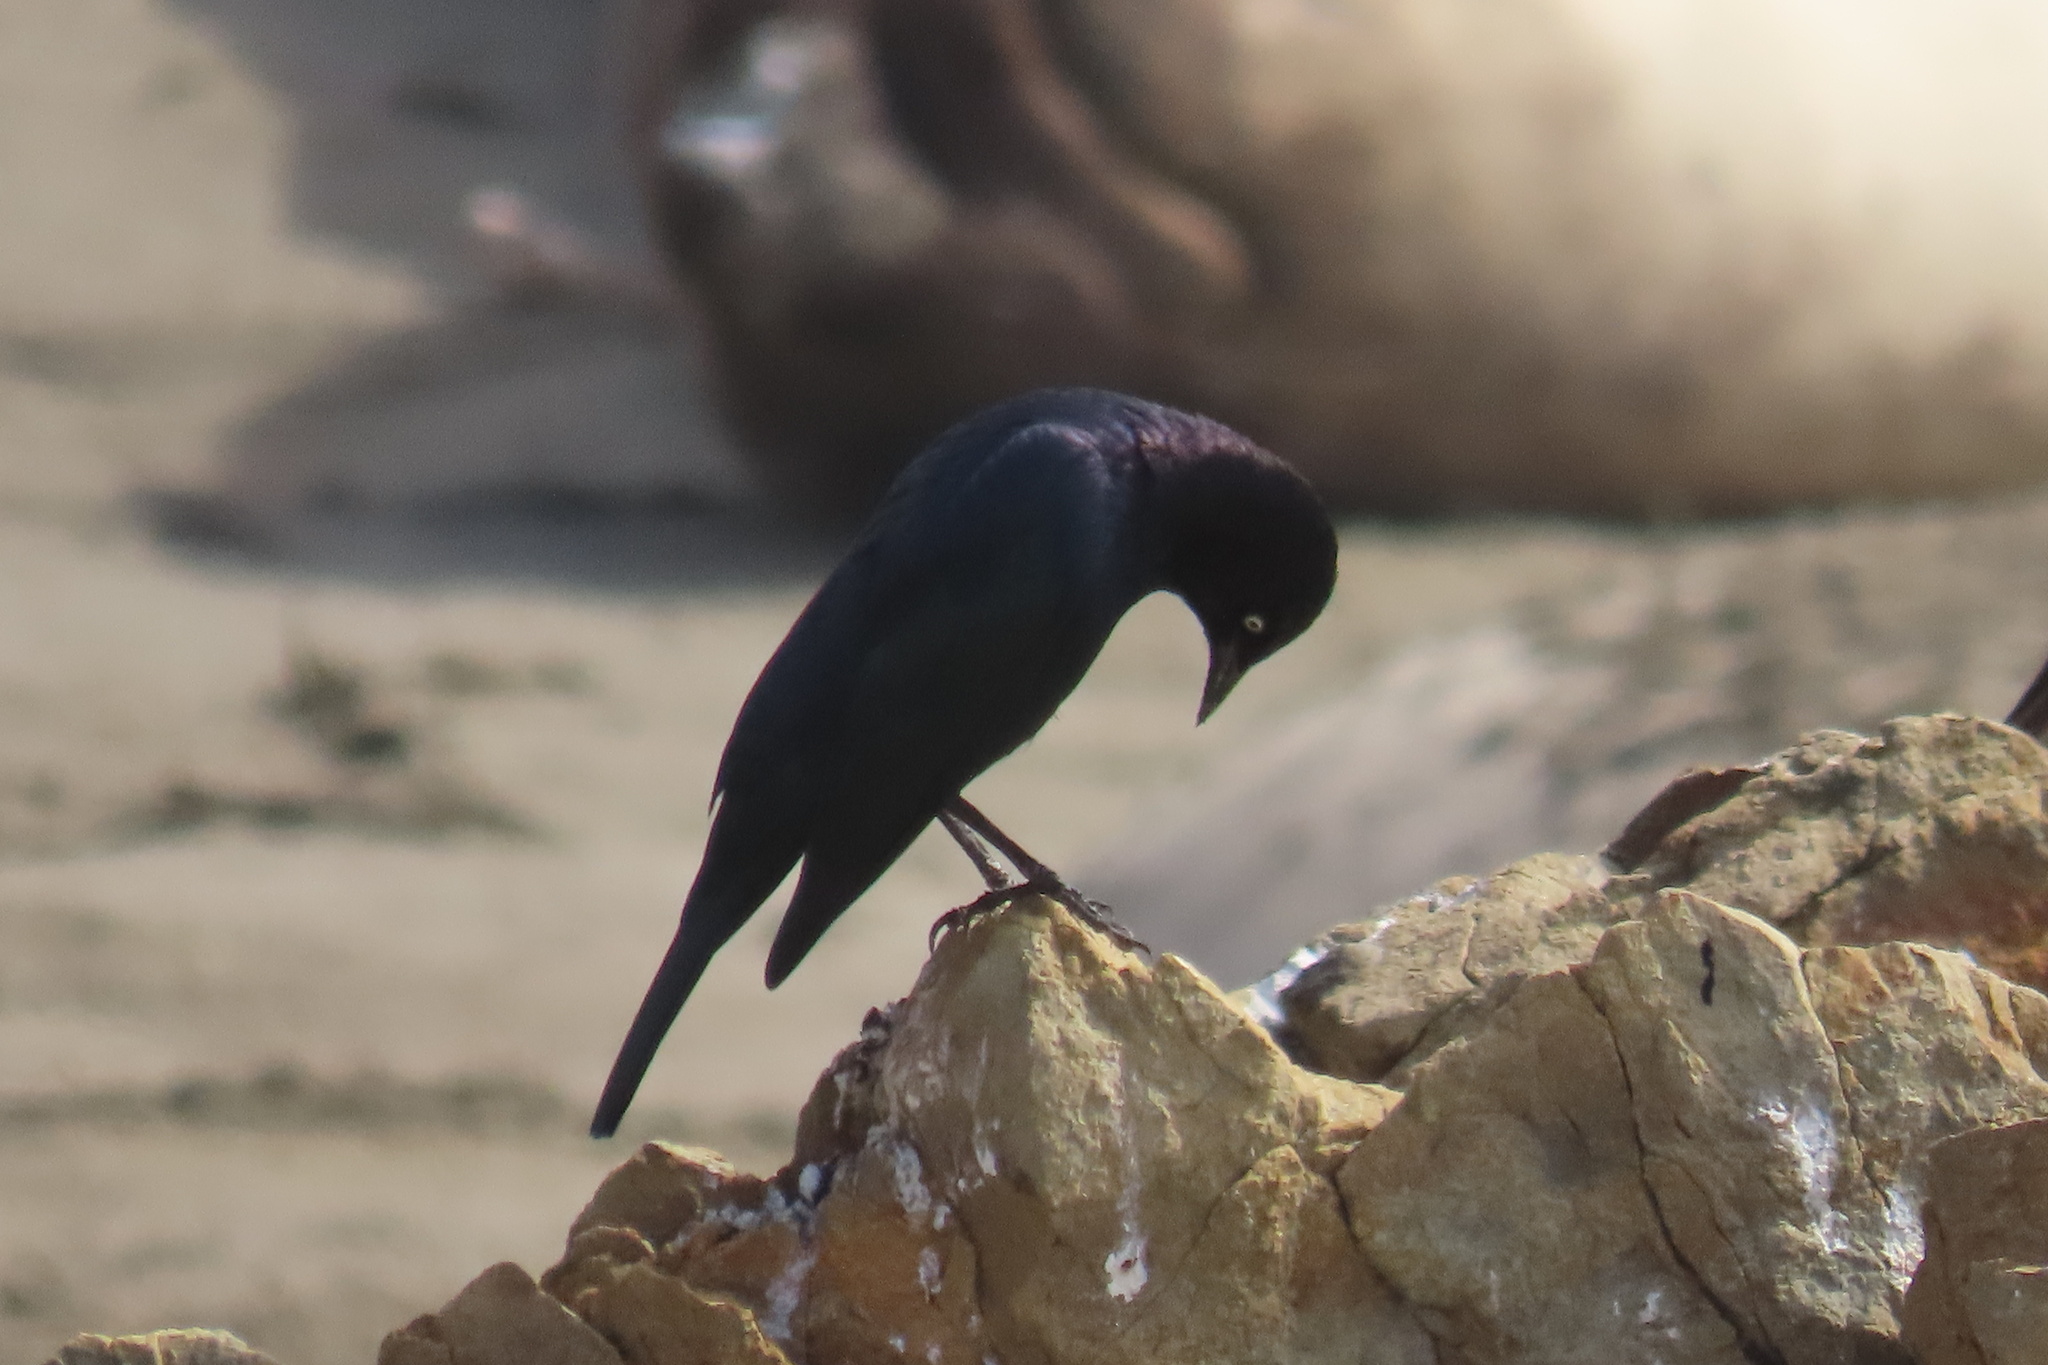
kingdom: Animalia
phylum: Chordata
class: Aves
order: Passeriformes
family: Icteridae
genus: Euphagus
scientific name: Euphagus cyanocephalus
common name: Brewer's blackbird
